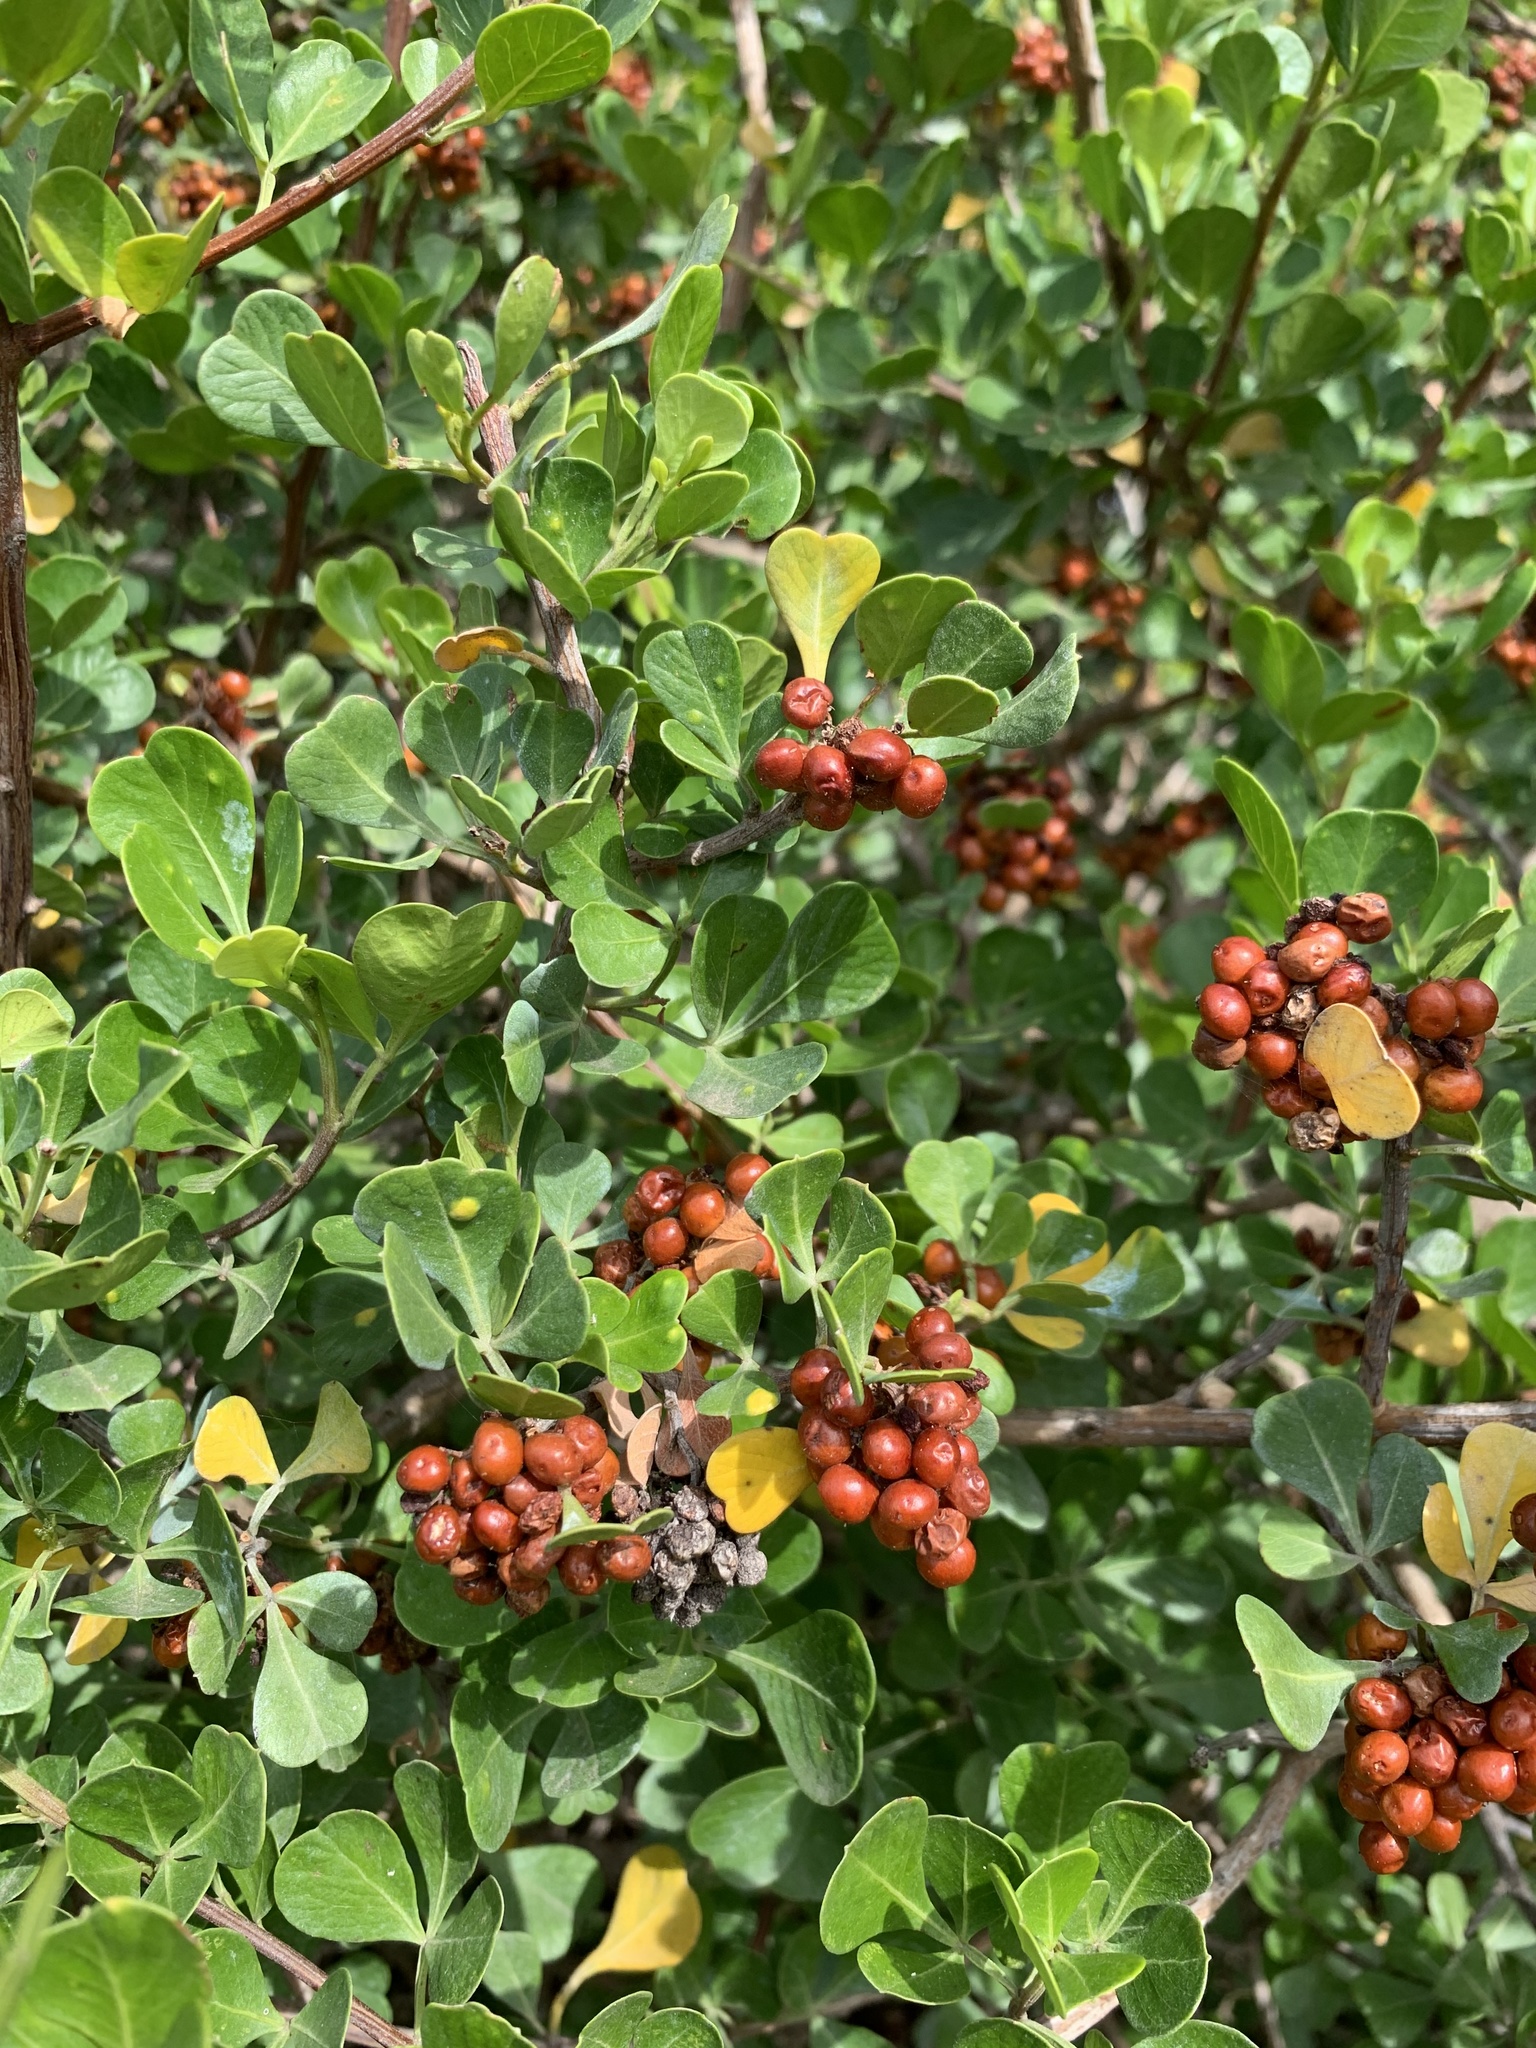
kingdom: Plantae
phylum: Tracheophyta
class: Magnoliopsida
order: Sapindales
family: Anacardiaceae
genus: Searsia
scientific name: Searsia glauca
